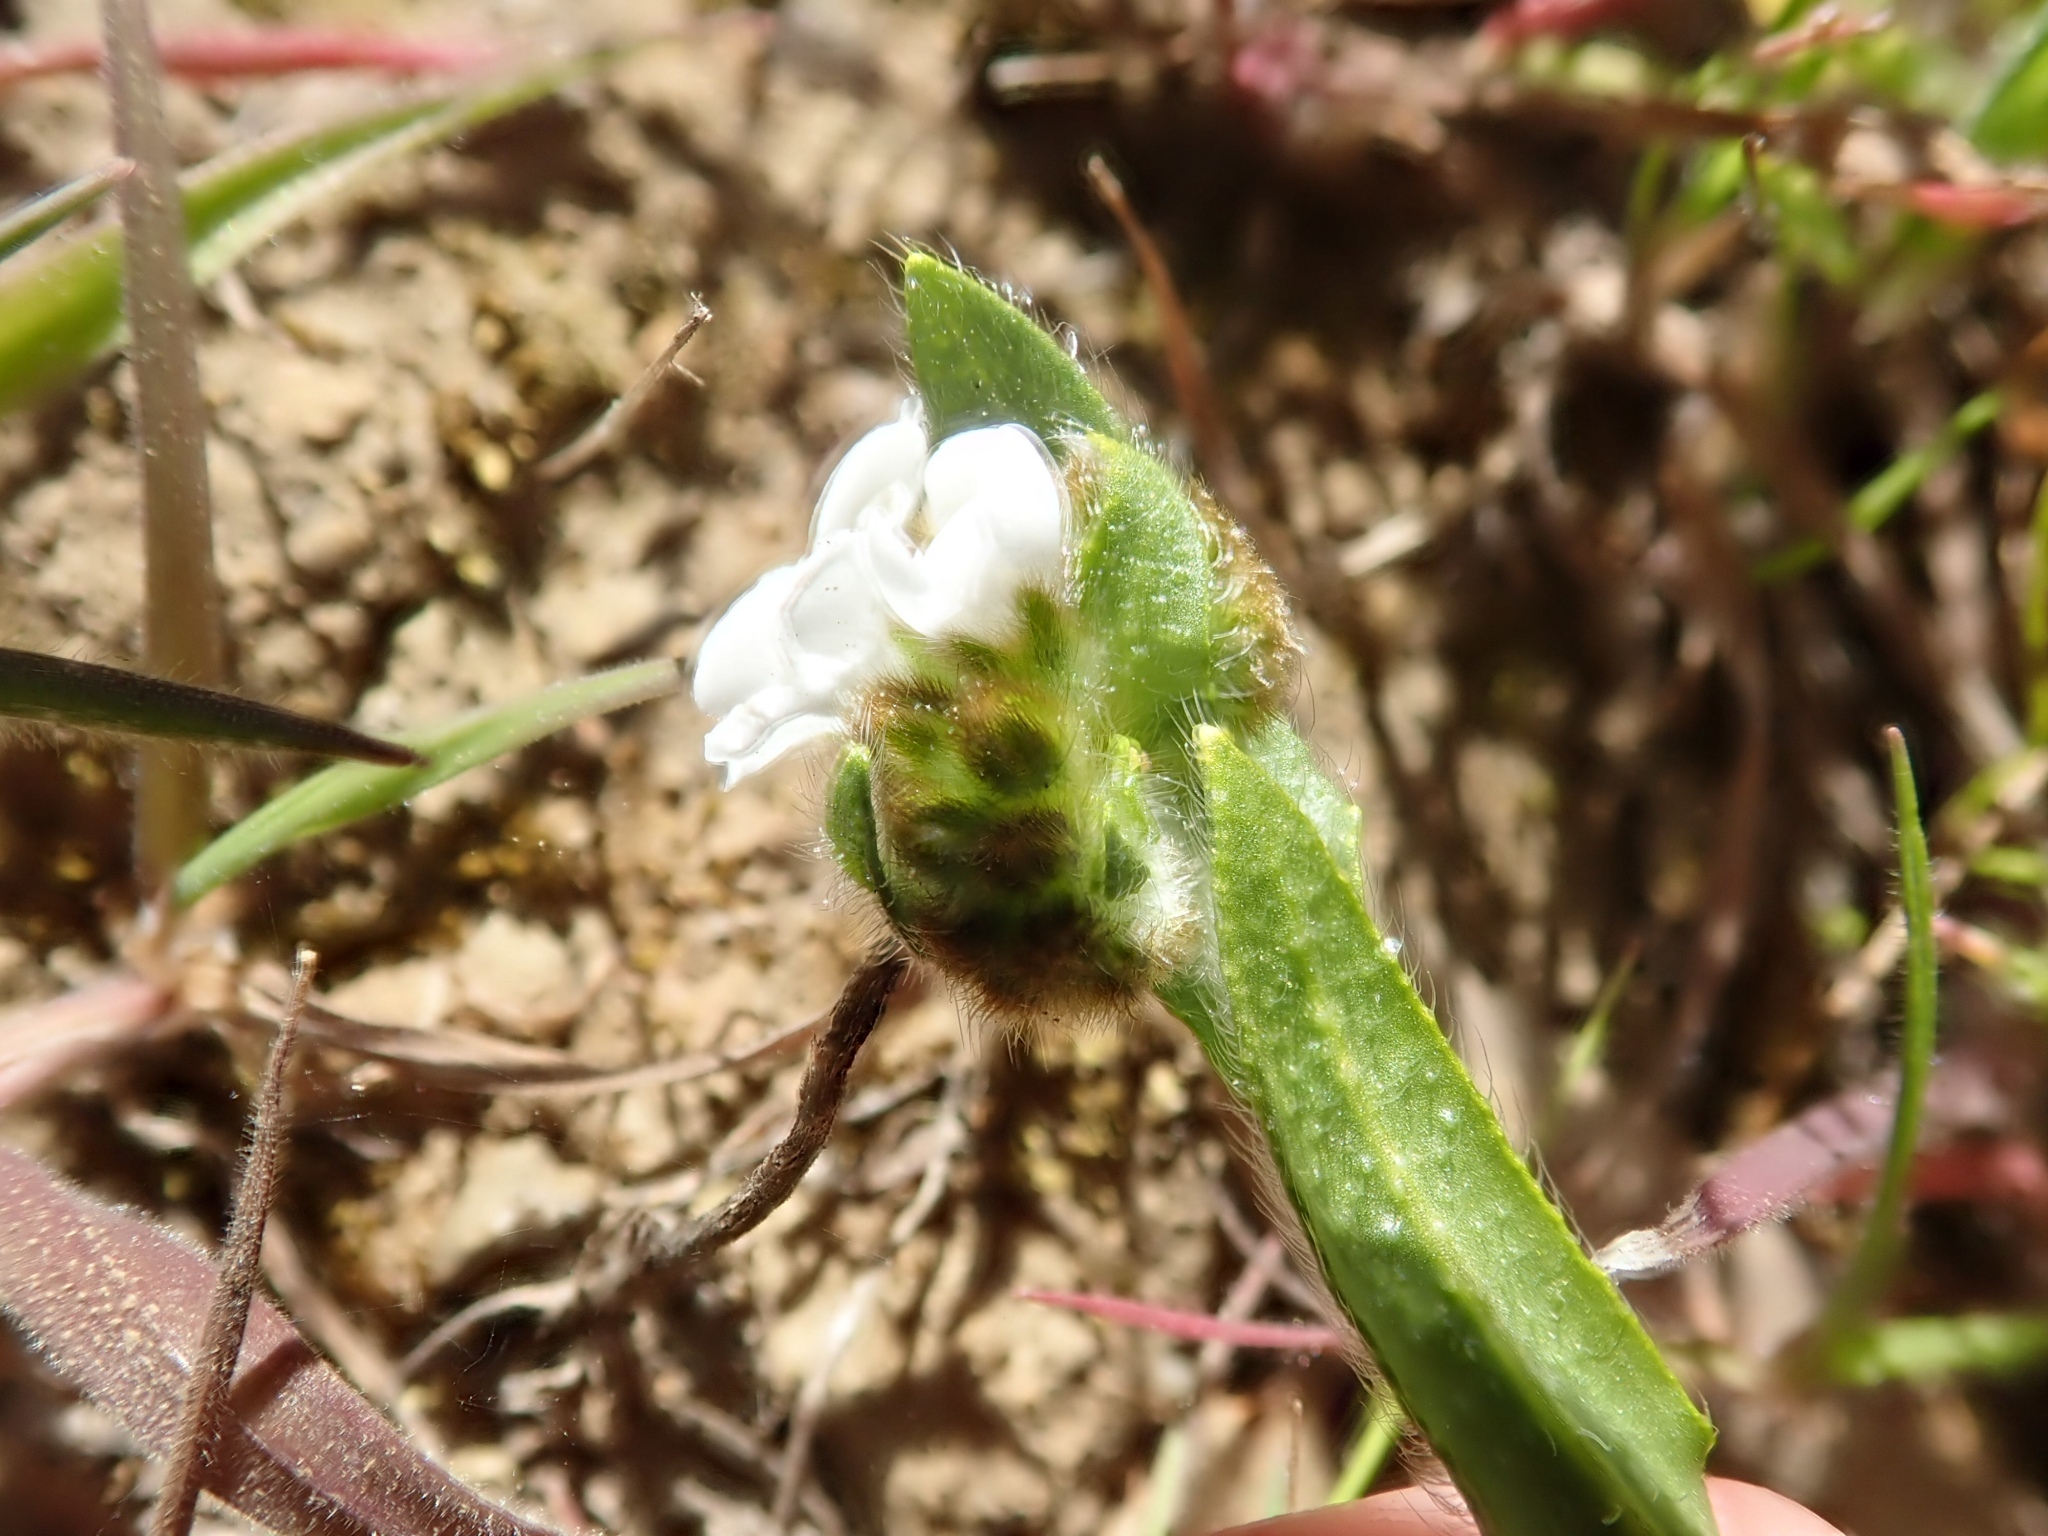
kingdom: Plantae
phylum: Tracheophyta
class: Magnoliopsida
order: Boraginales
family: Boraginaceae
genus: Plagiobothrys
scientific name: Plagiobothrys nothofulvus
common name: Popcorn-flower
